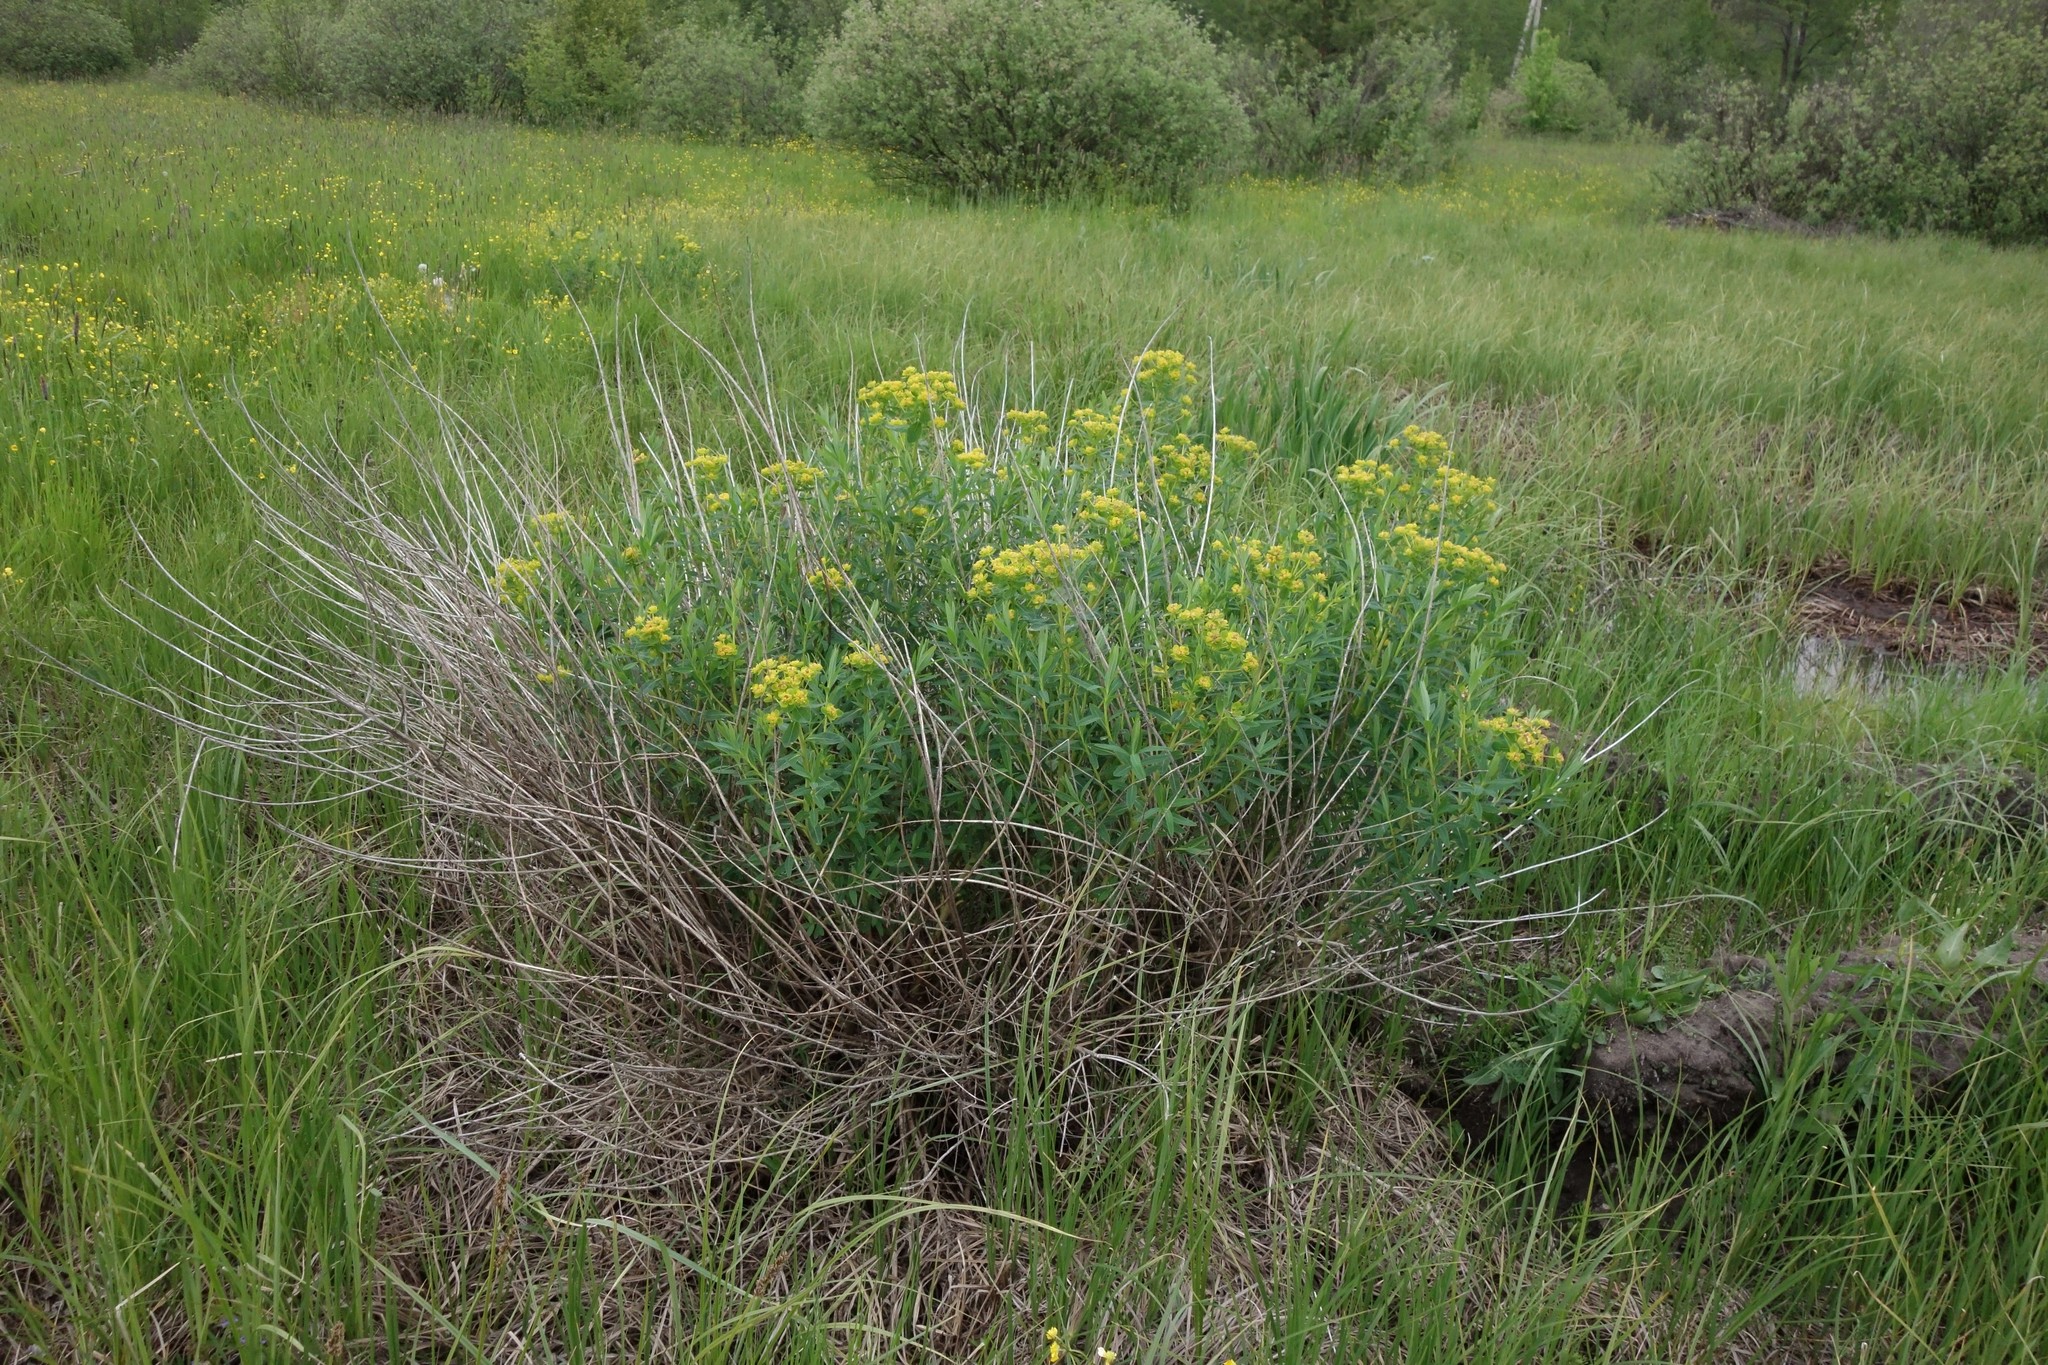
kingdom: Plantae
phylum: Tracheophyta
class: Magnoliopsida
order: Malpighiales
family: Euphorbiaceae
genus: Euphorbia
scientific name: Euphorbia palustris
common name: Marsh spurge
